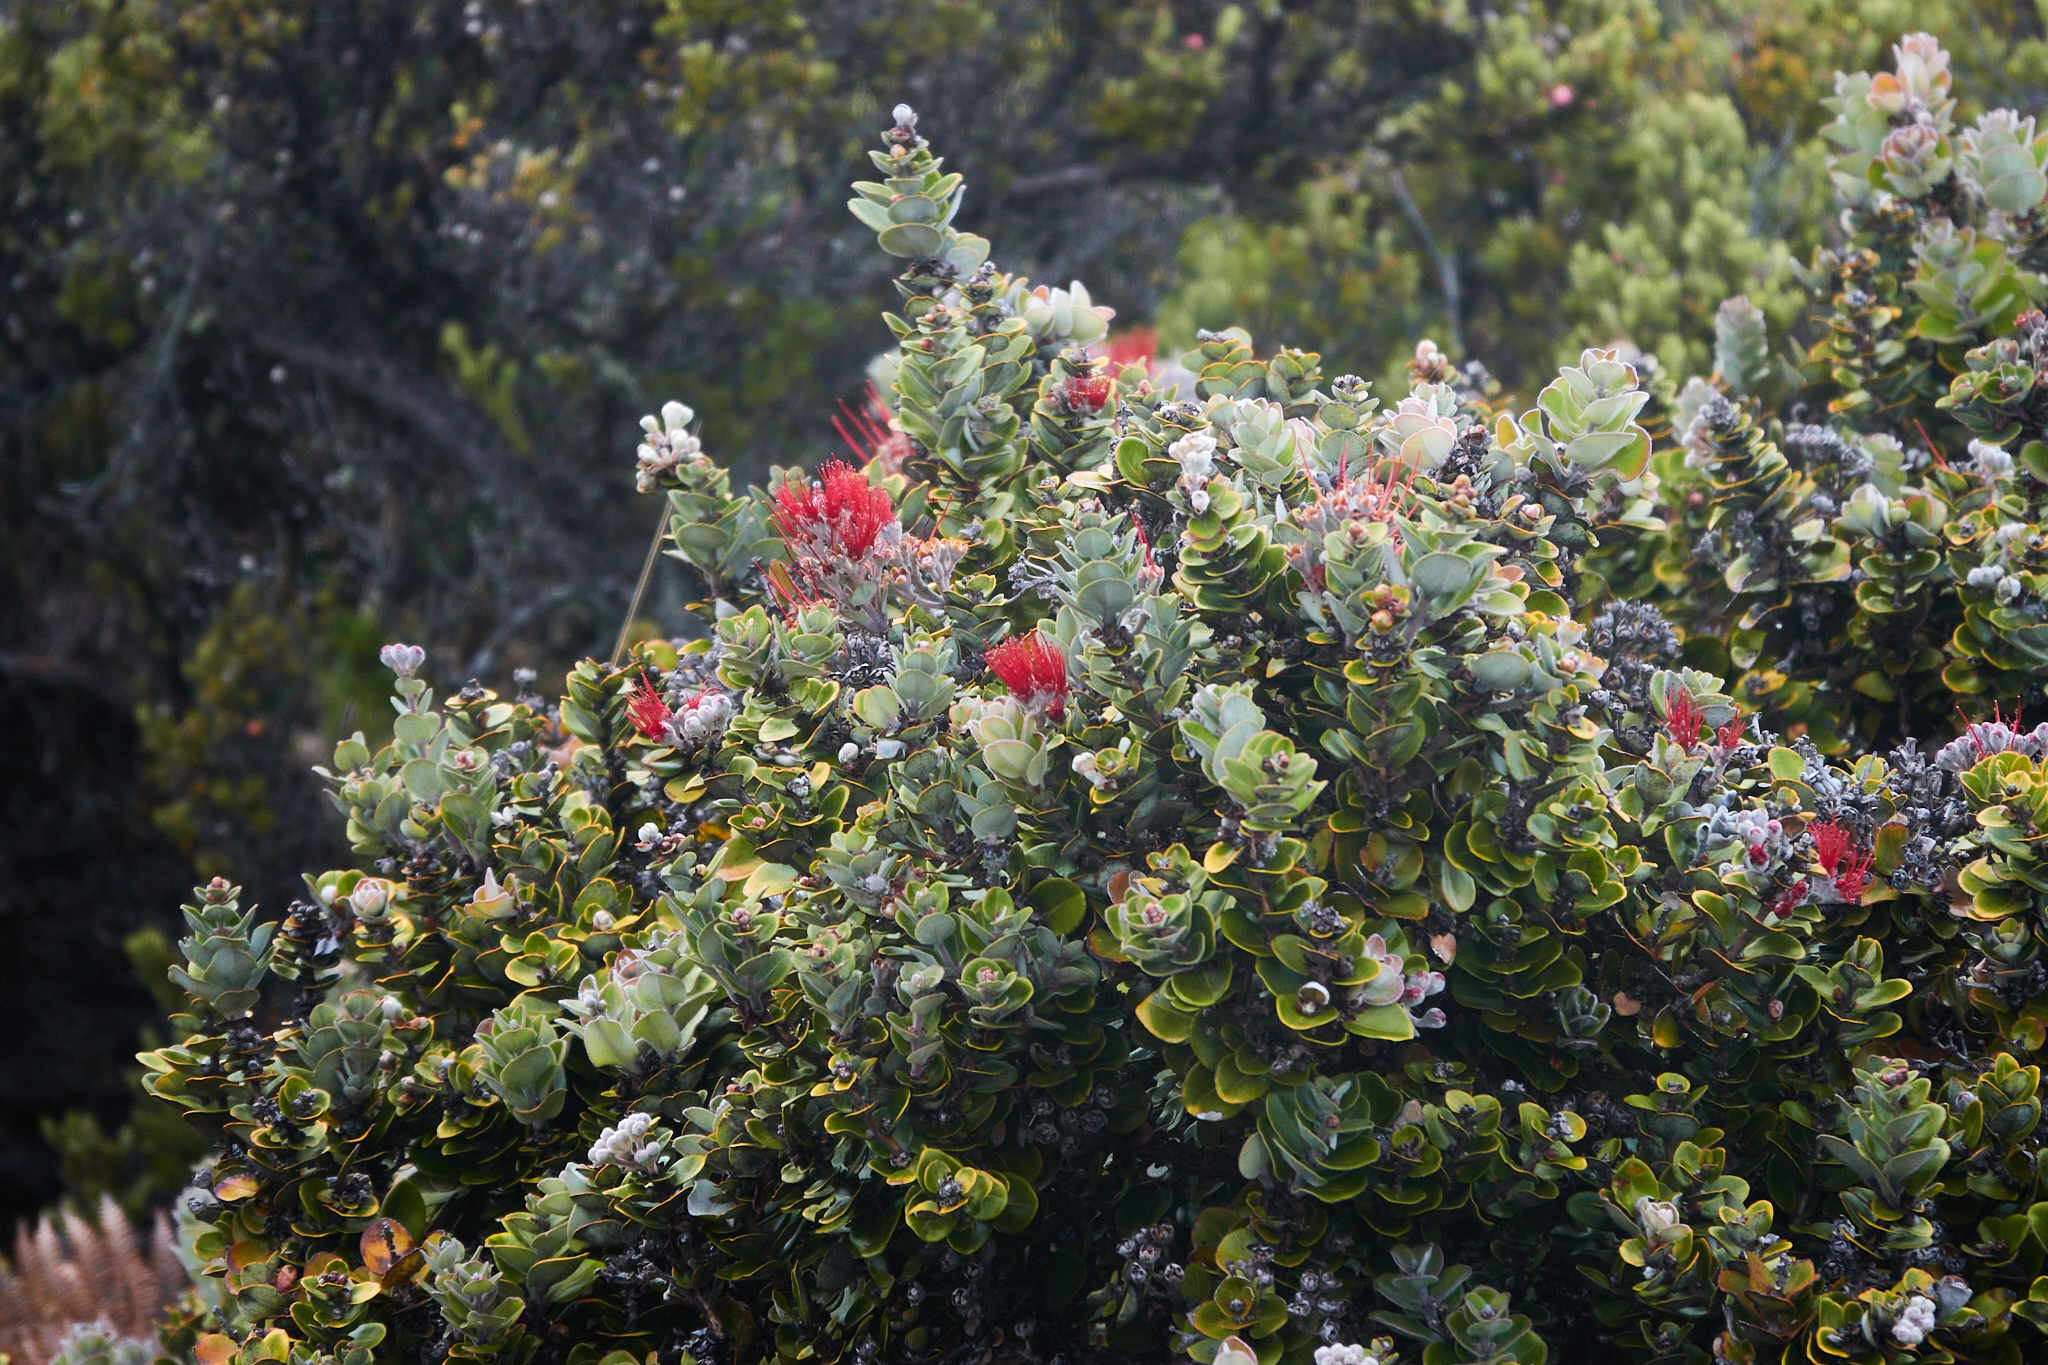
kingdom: Plantae
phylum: Tracheophyta
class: Magnoliopsida
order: Myrtales
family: Myrtaceae
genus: Metrosideros
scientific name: Metrosideros polymorpha
